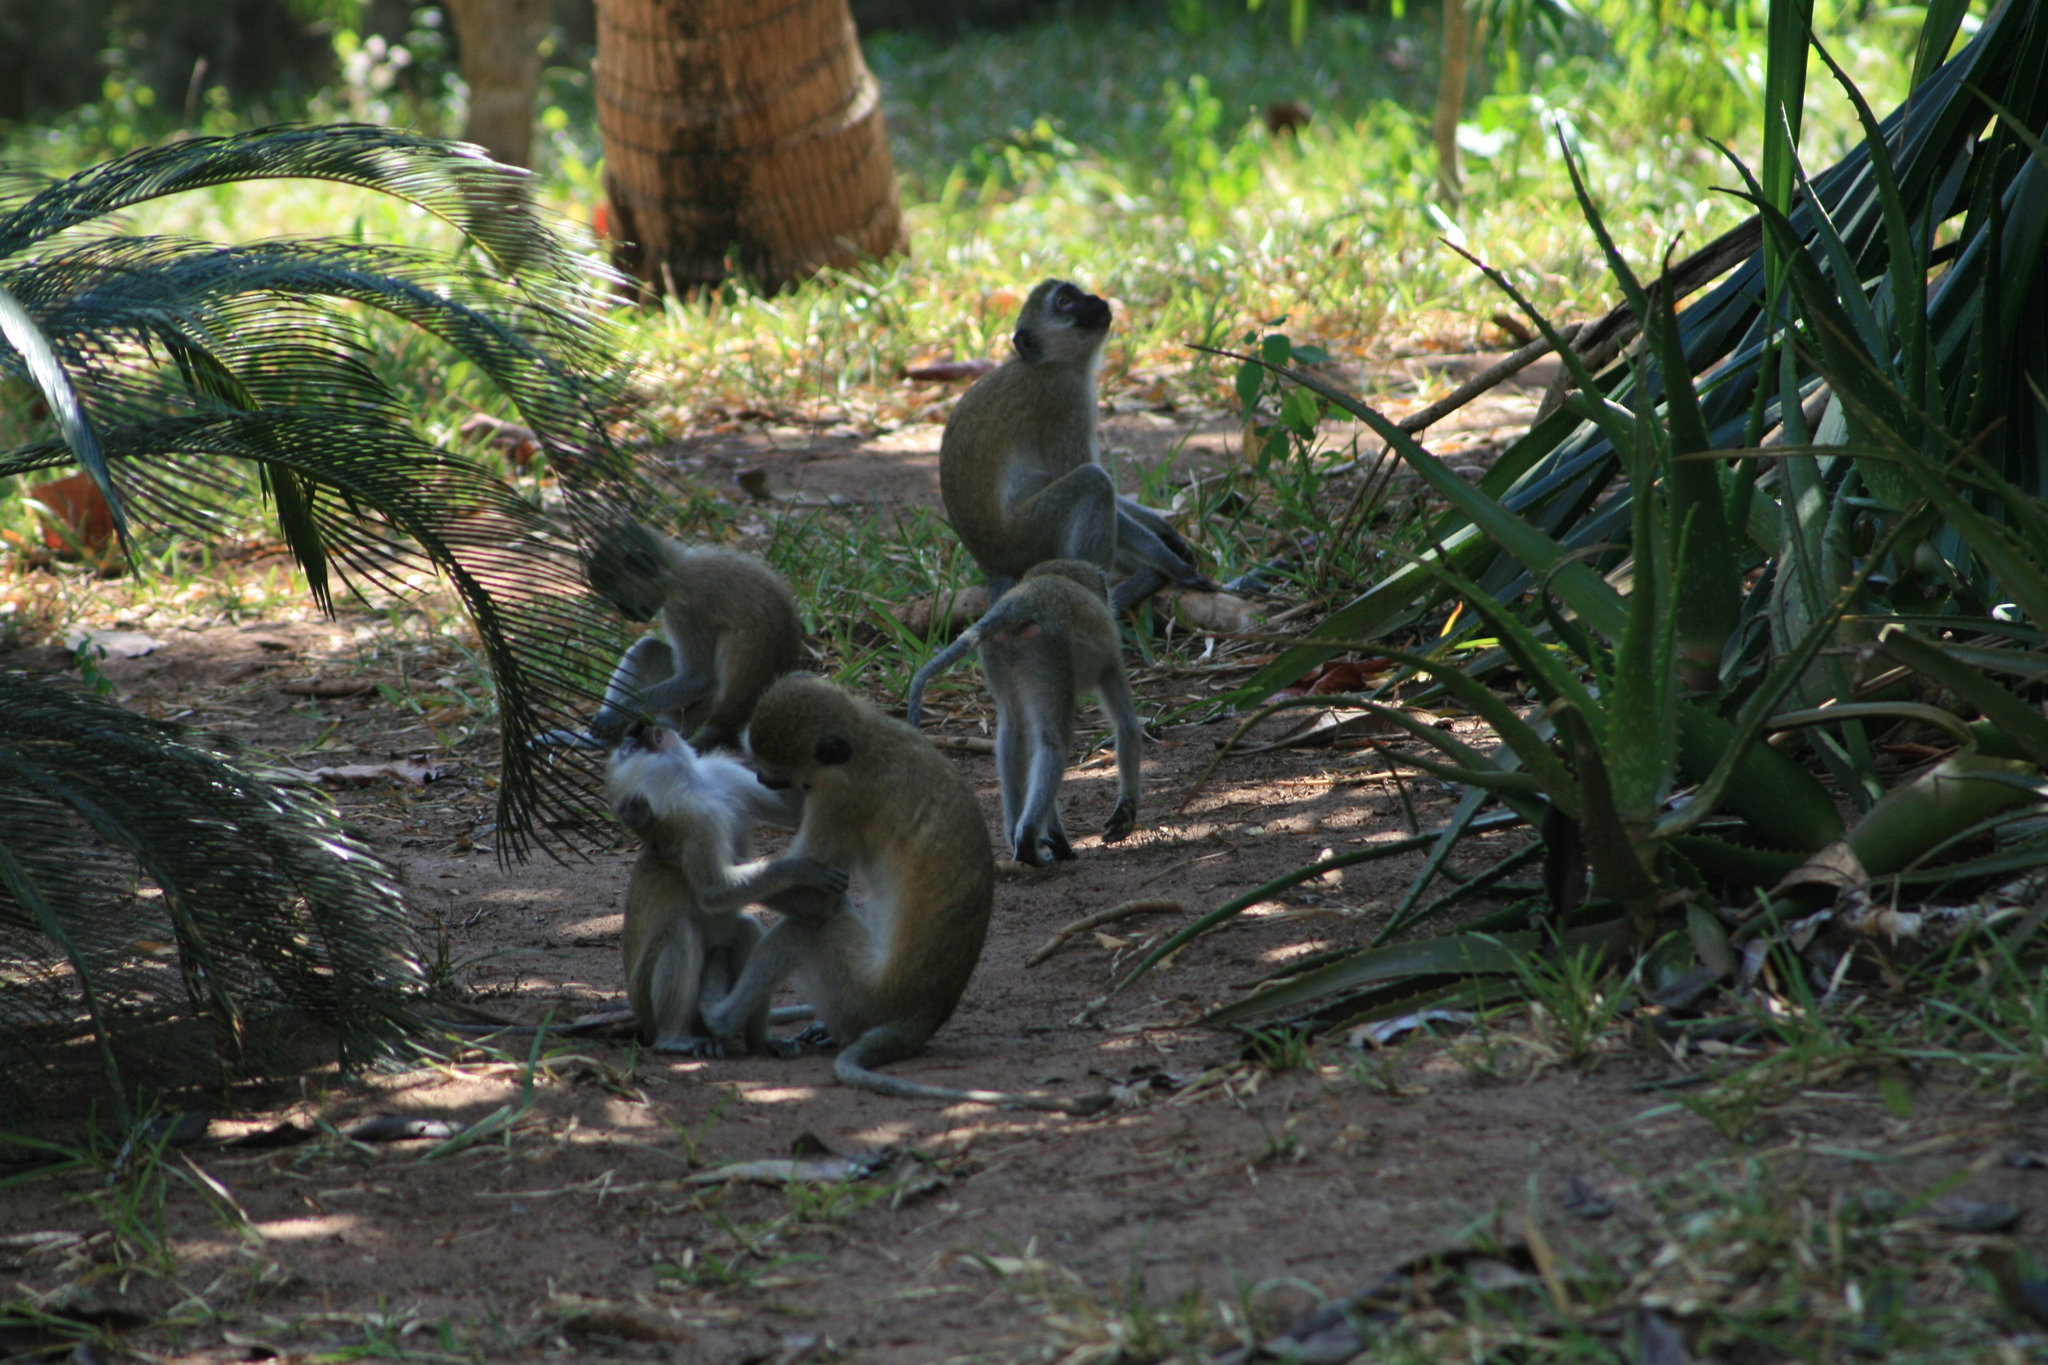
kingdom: Animalia
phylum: Chordata
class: Mammalia
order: Primates
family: Cercopithecidae
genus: Chlorocebus
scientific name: Chlorocebus pygerythrus
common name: Vervet monkey
